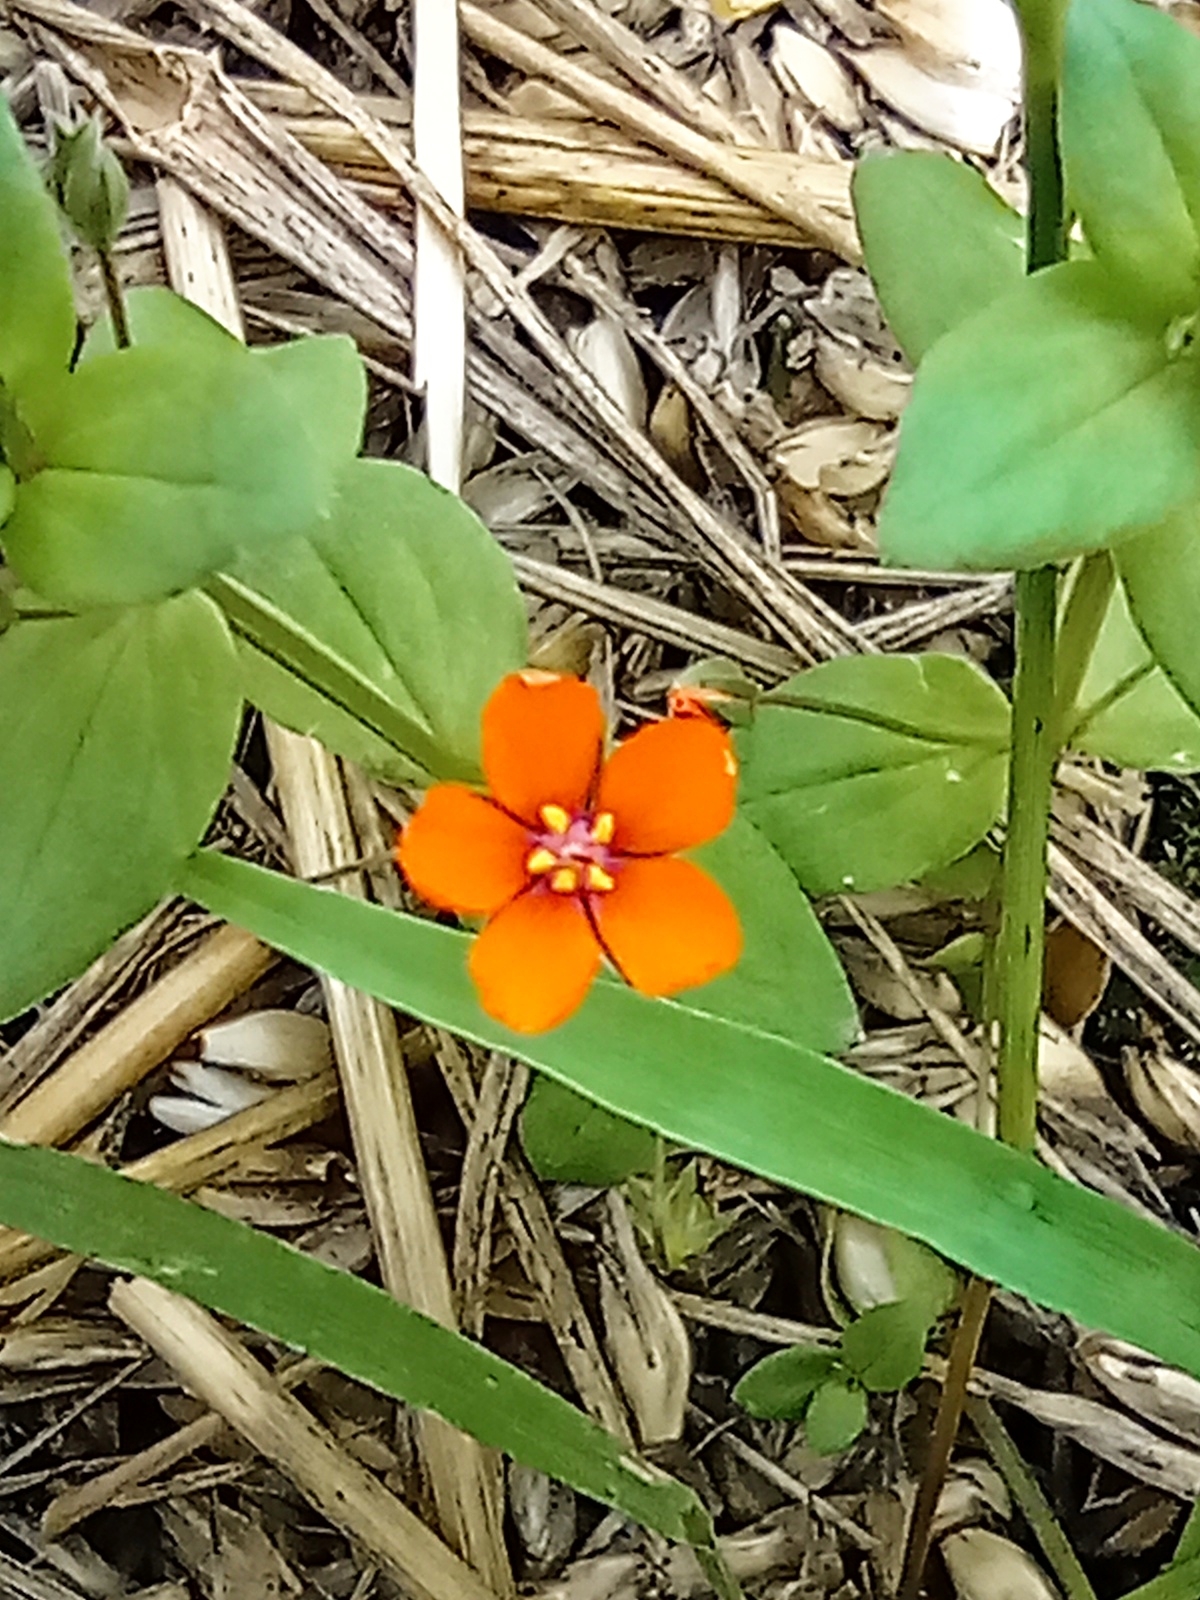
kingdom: Plantae
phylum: Tracheophyta
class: Magnoliopsida
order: Ericales
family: Primulaceae
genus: Lysimachia
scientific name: Lysimachia arvensis
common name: Scarlet pimpernel
